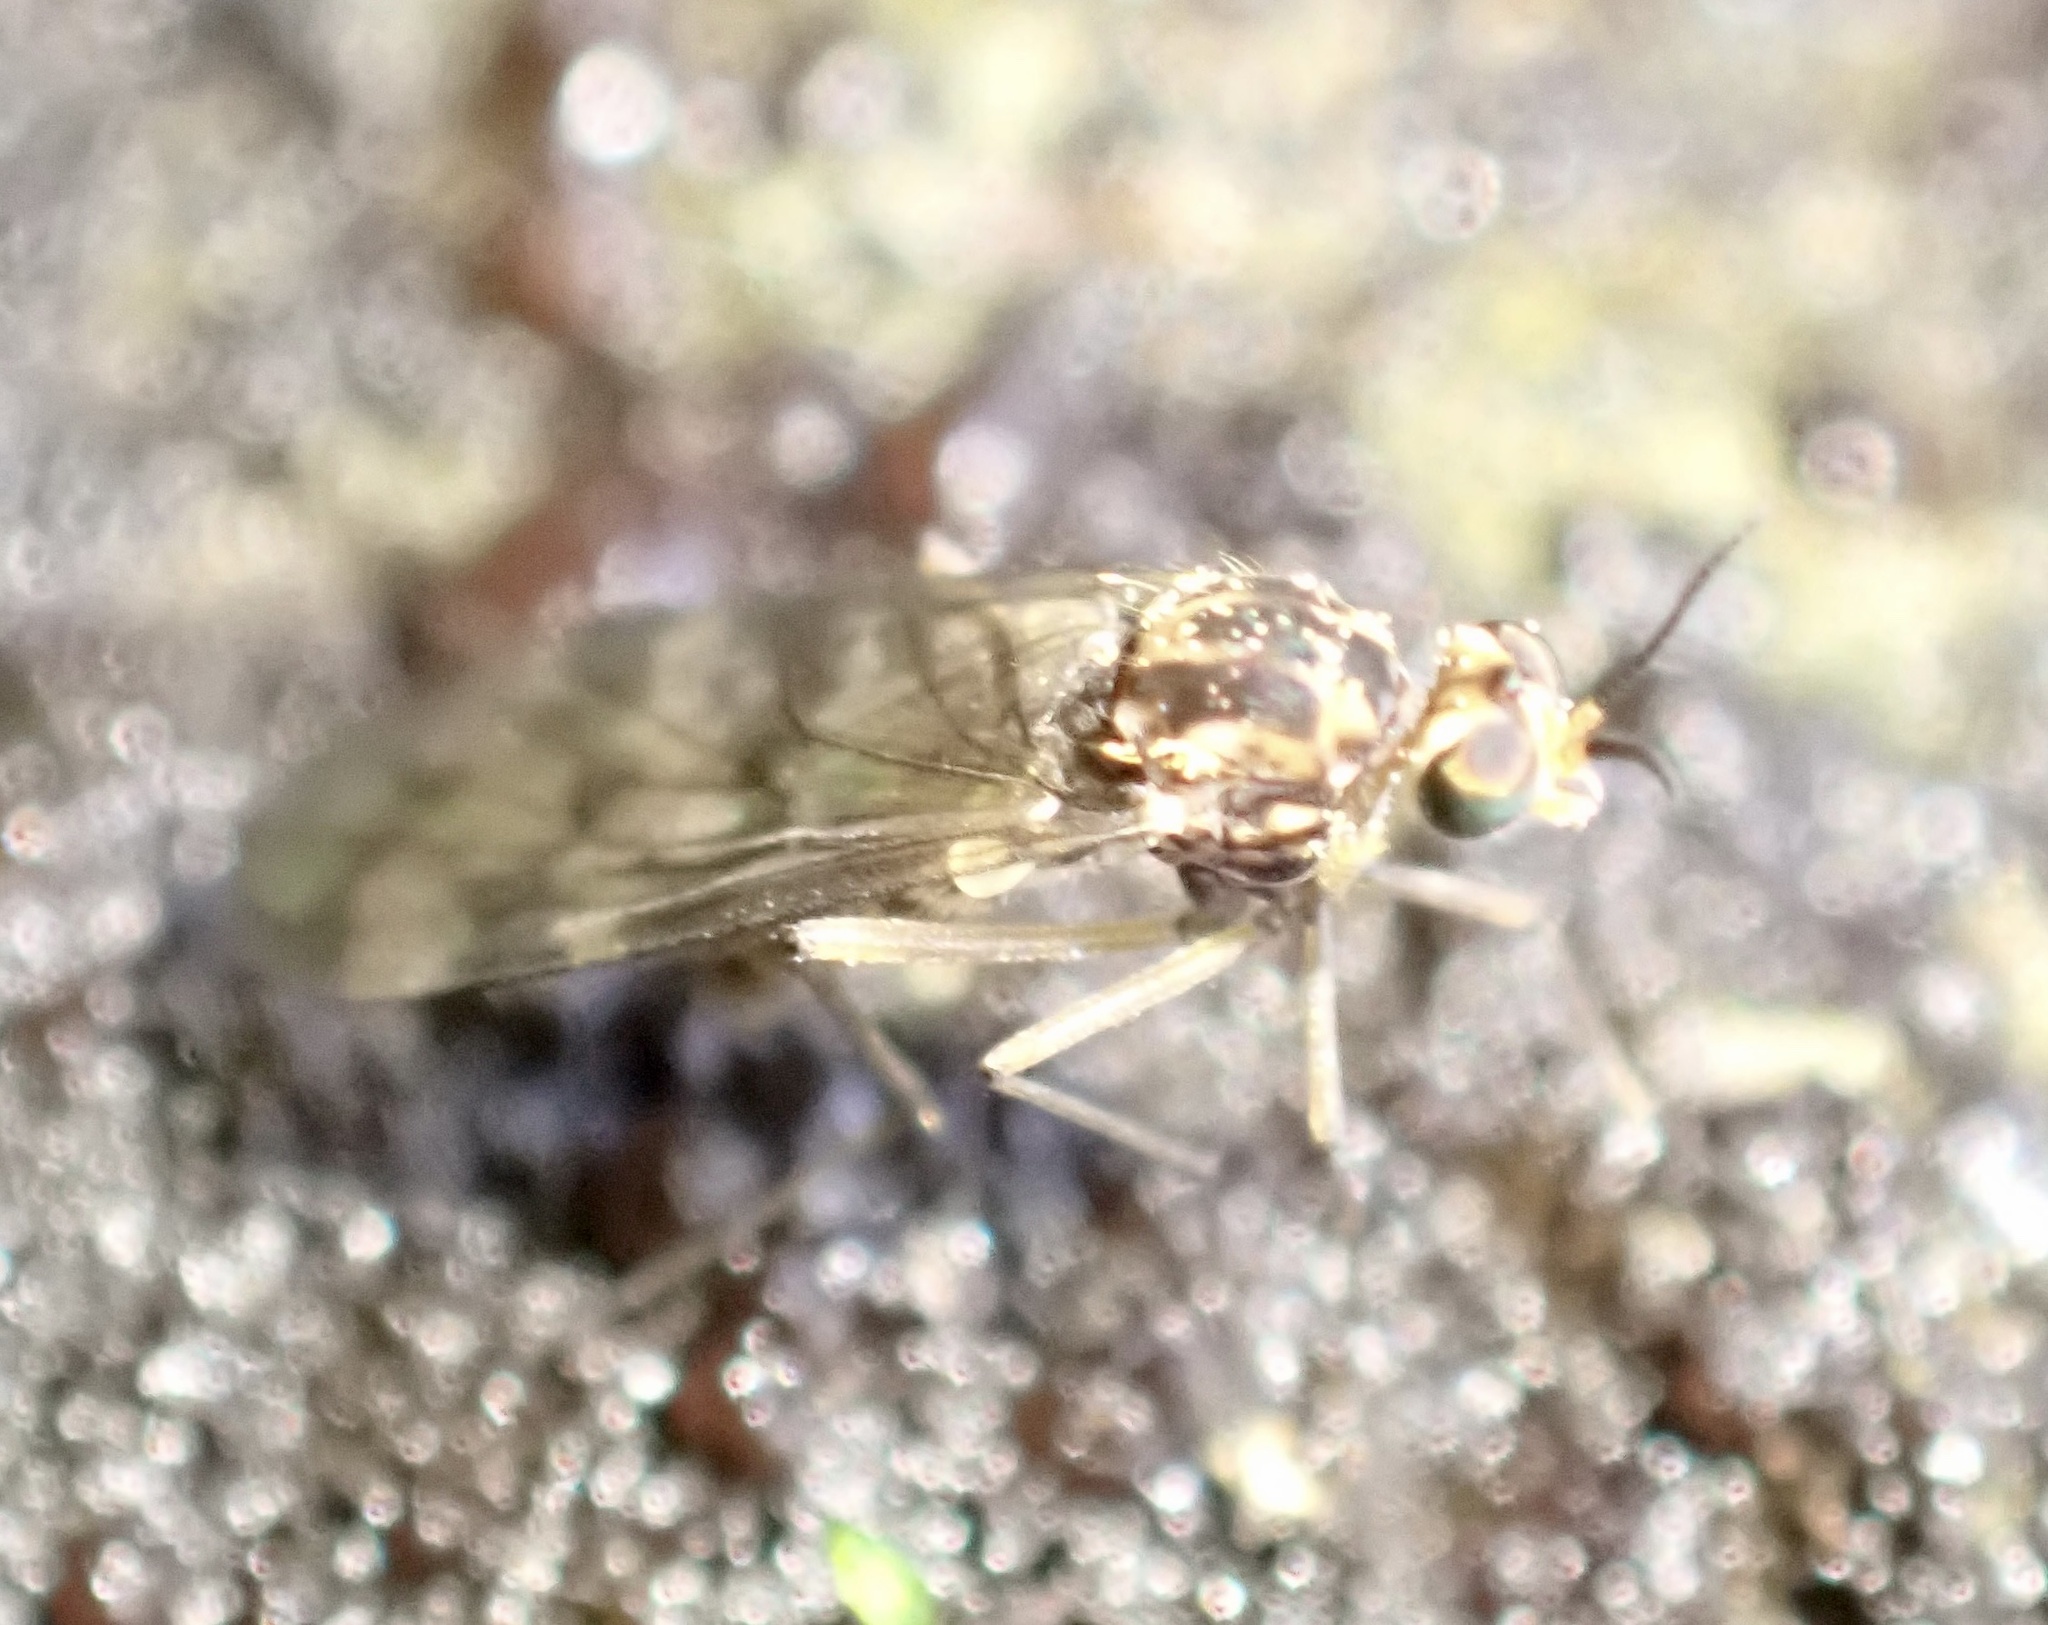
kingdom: Animalia
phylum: Arthropoda
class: Insecta
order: Diptera
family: Anisopodidae
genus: Sylvicola
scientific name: Sylvicola dubius
